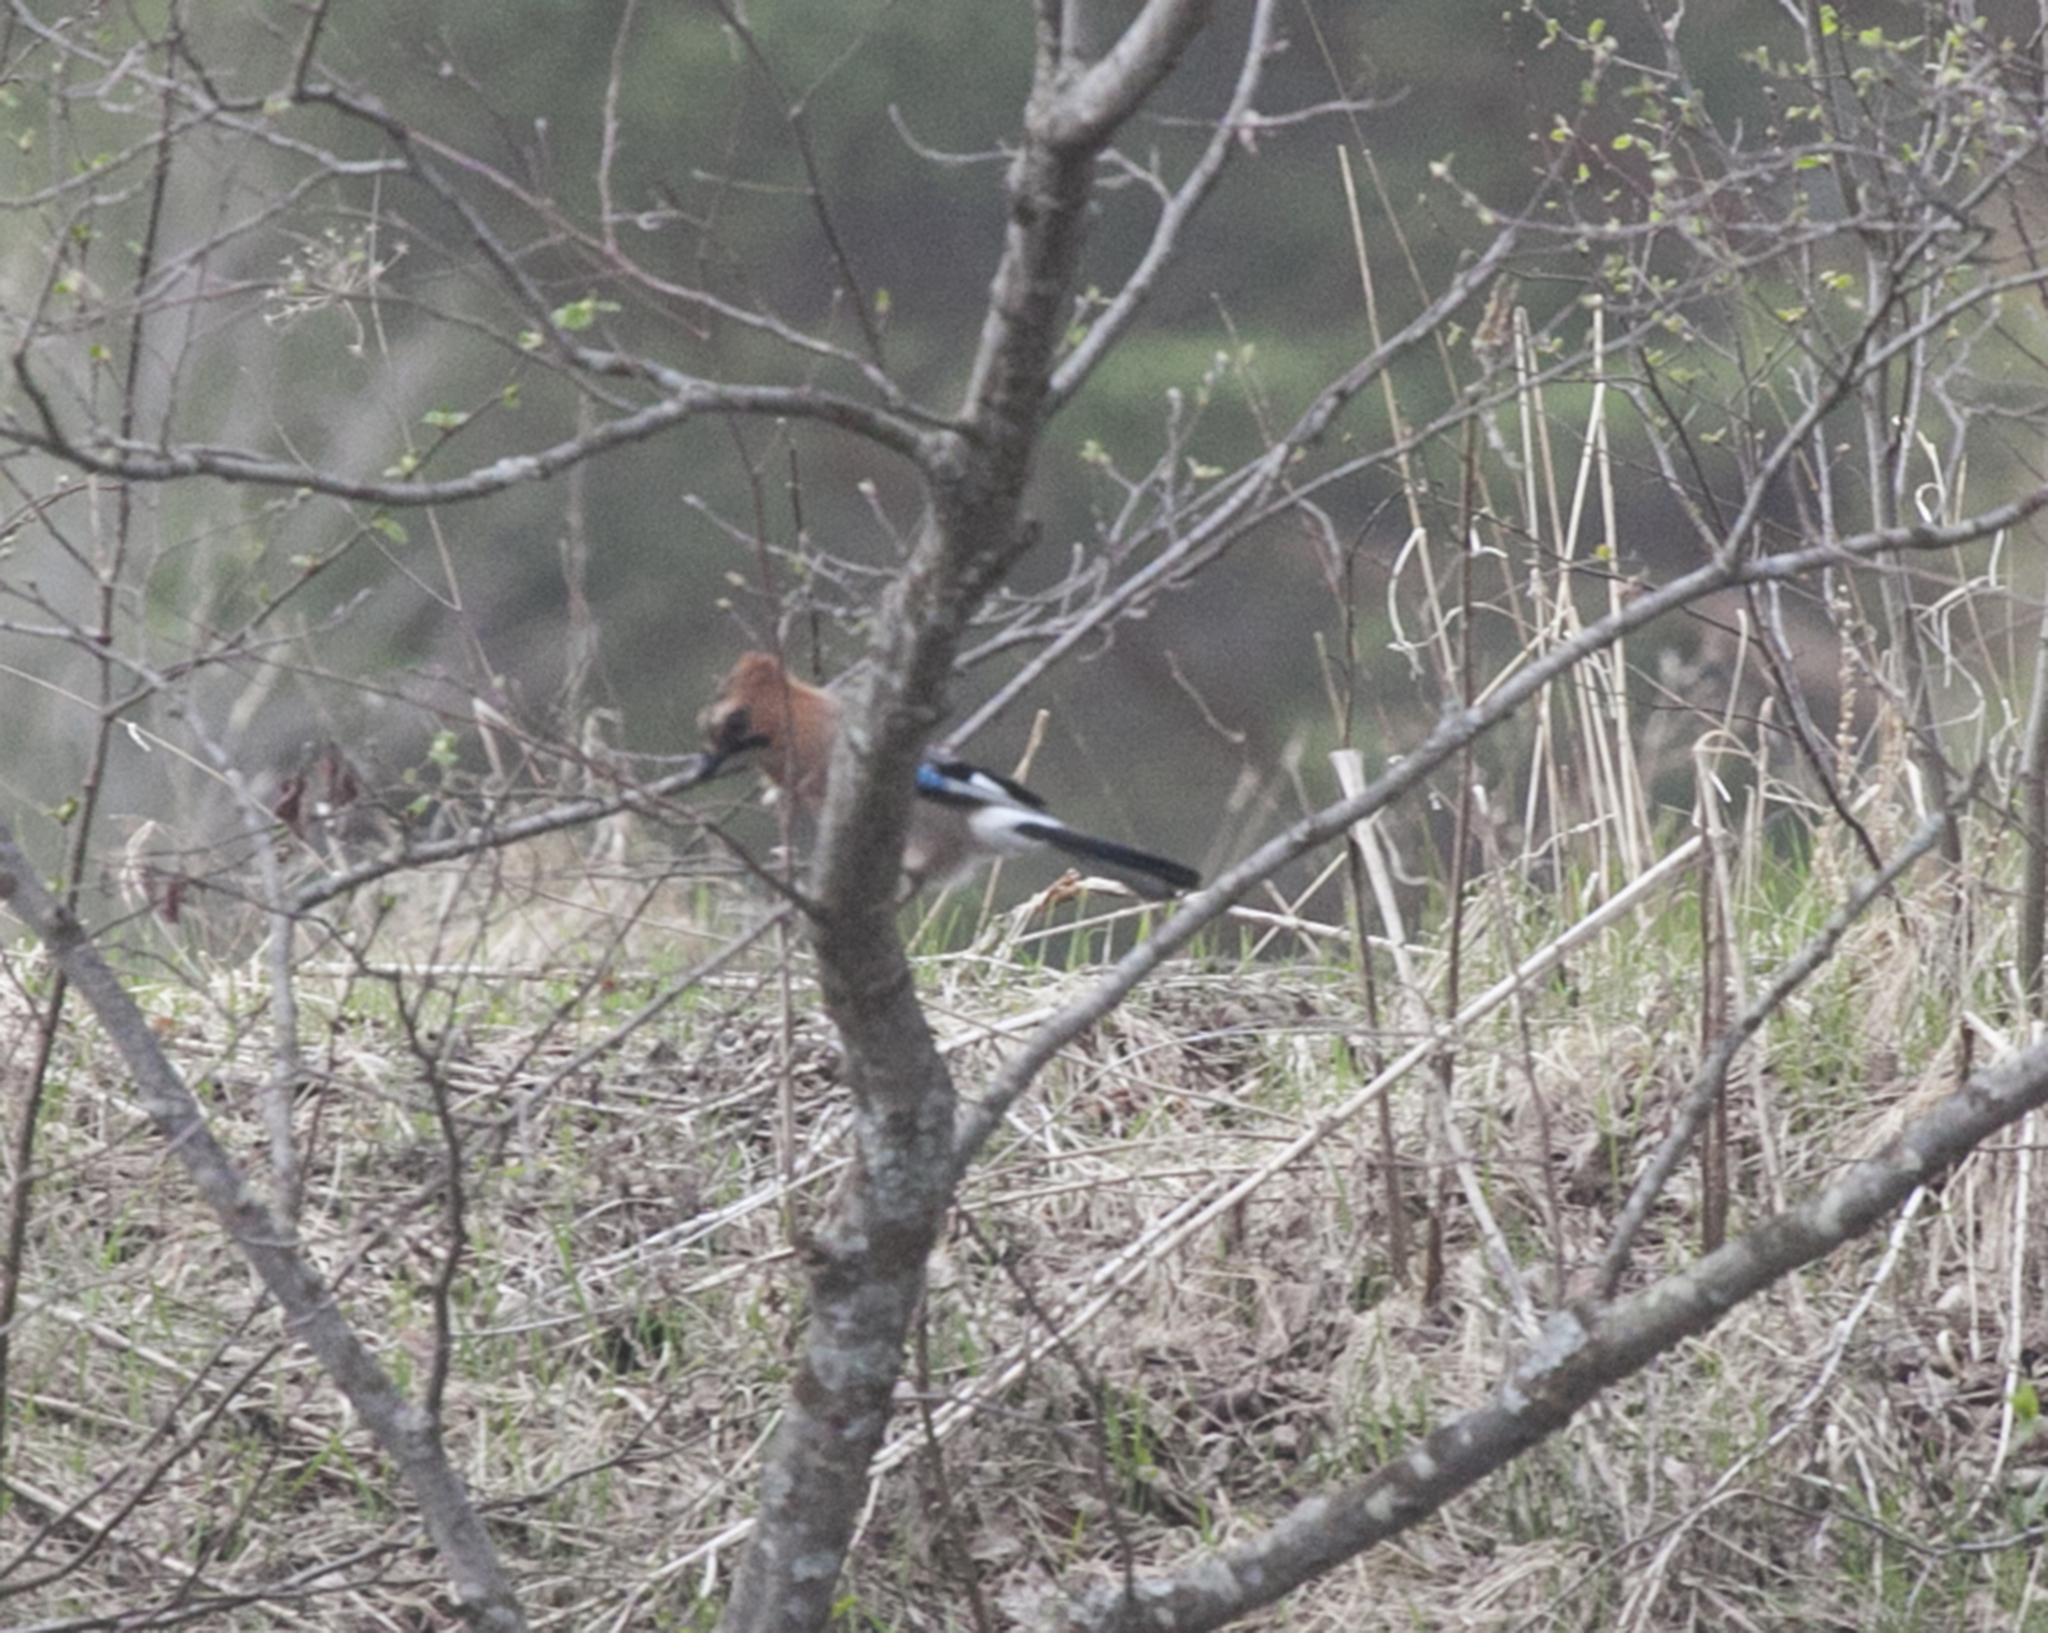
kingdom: Animalia
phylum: Chordata
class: Aves
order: Passeriformes
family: Corvidae
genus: Garrulus
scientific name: Garrulus glandarius
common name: Eurasian jay
